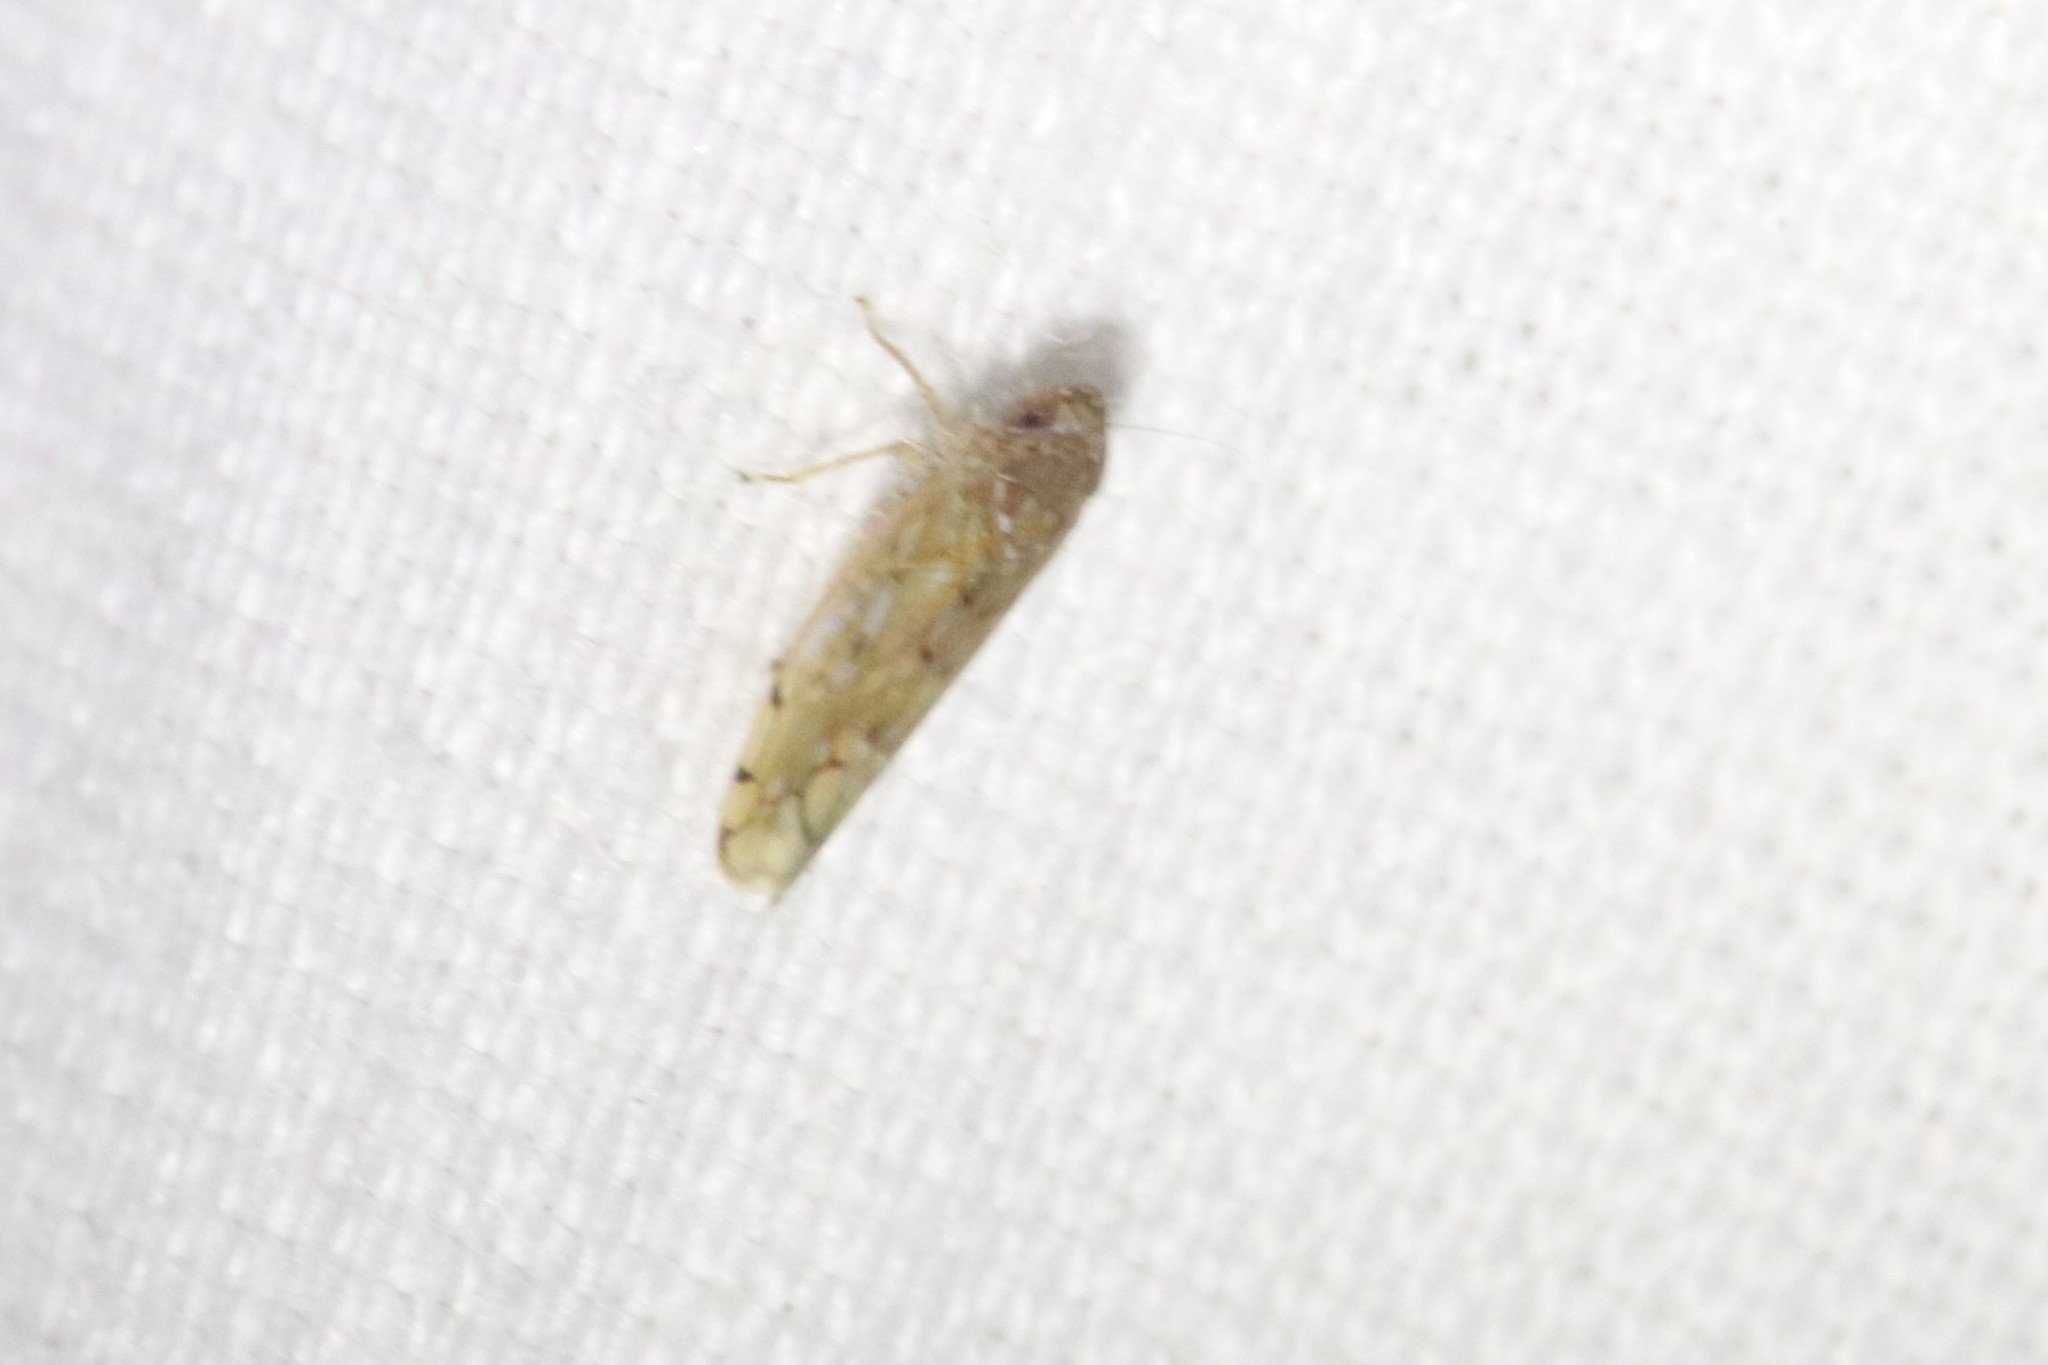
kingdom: Animalia
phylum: Arthropoda
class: Insecta
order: Hemiptera
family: Cicadellidae
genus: Osbornellus
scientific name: Osbornellus consors
